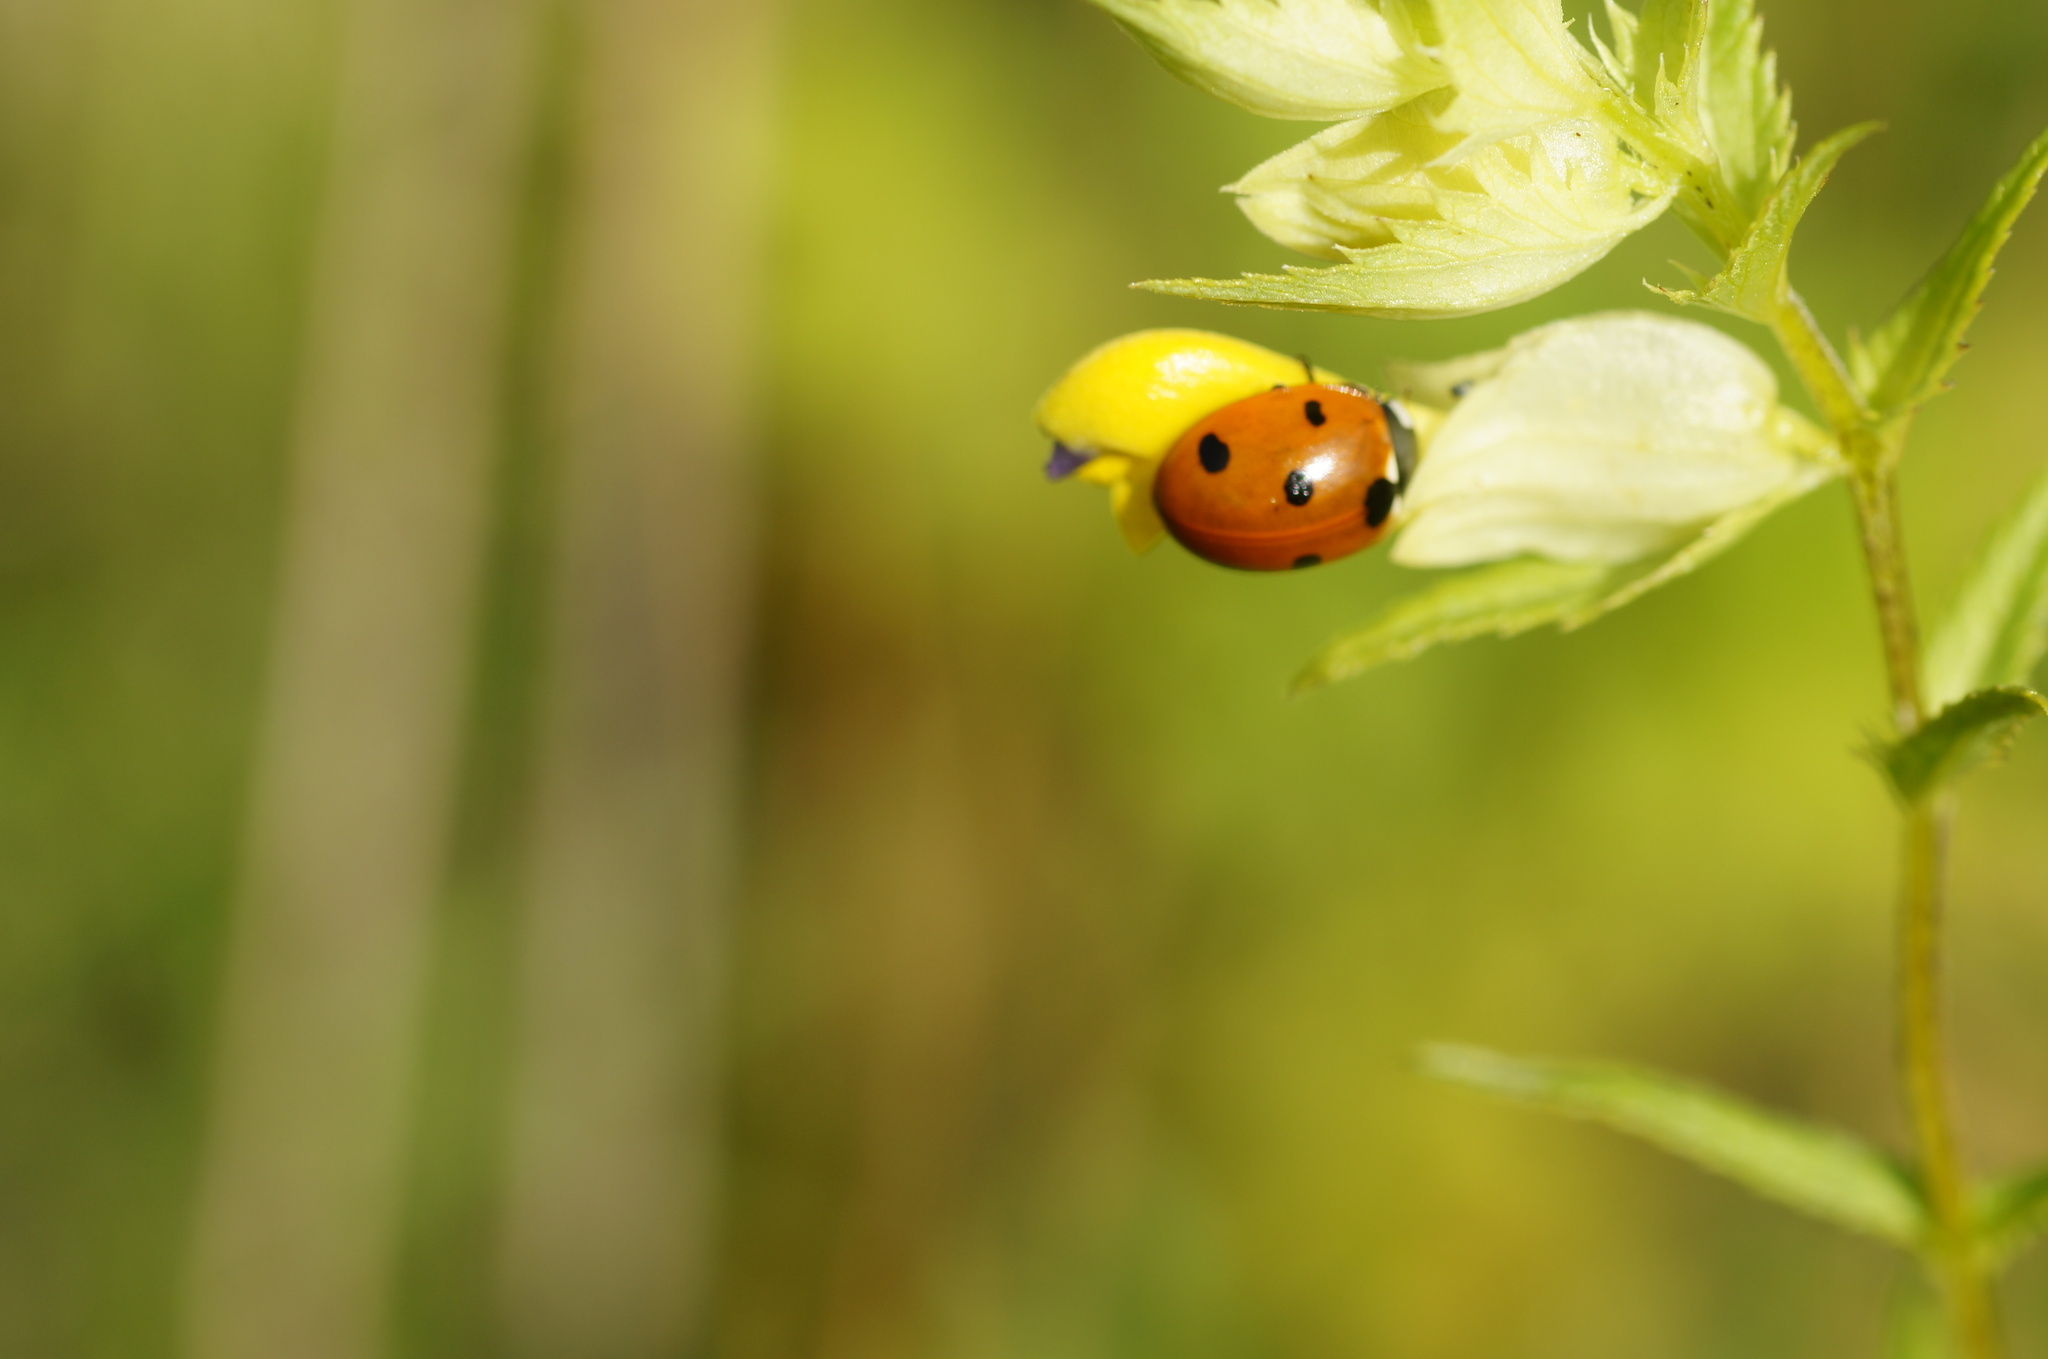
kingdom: Animalia
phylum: Arthropoda
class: Insecta
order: Coleoptera
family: Coccinellidae
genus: Coccinella
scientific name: Coccinella septempunctata
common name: Sevenspotted lady beetle
